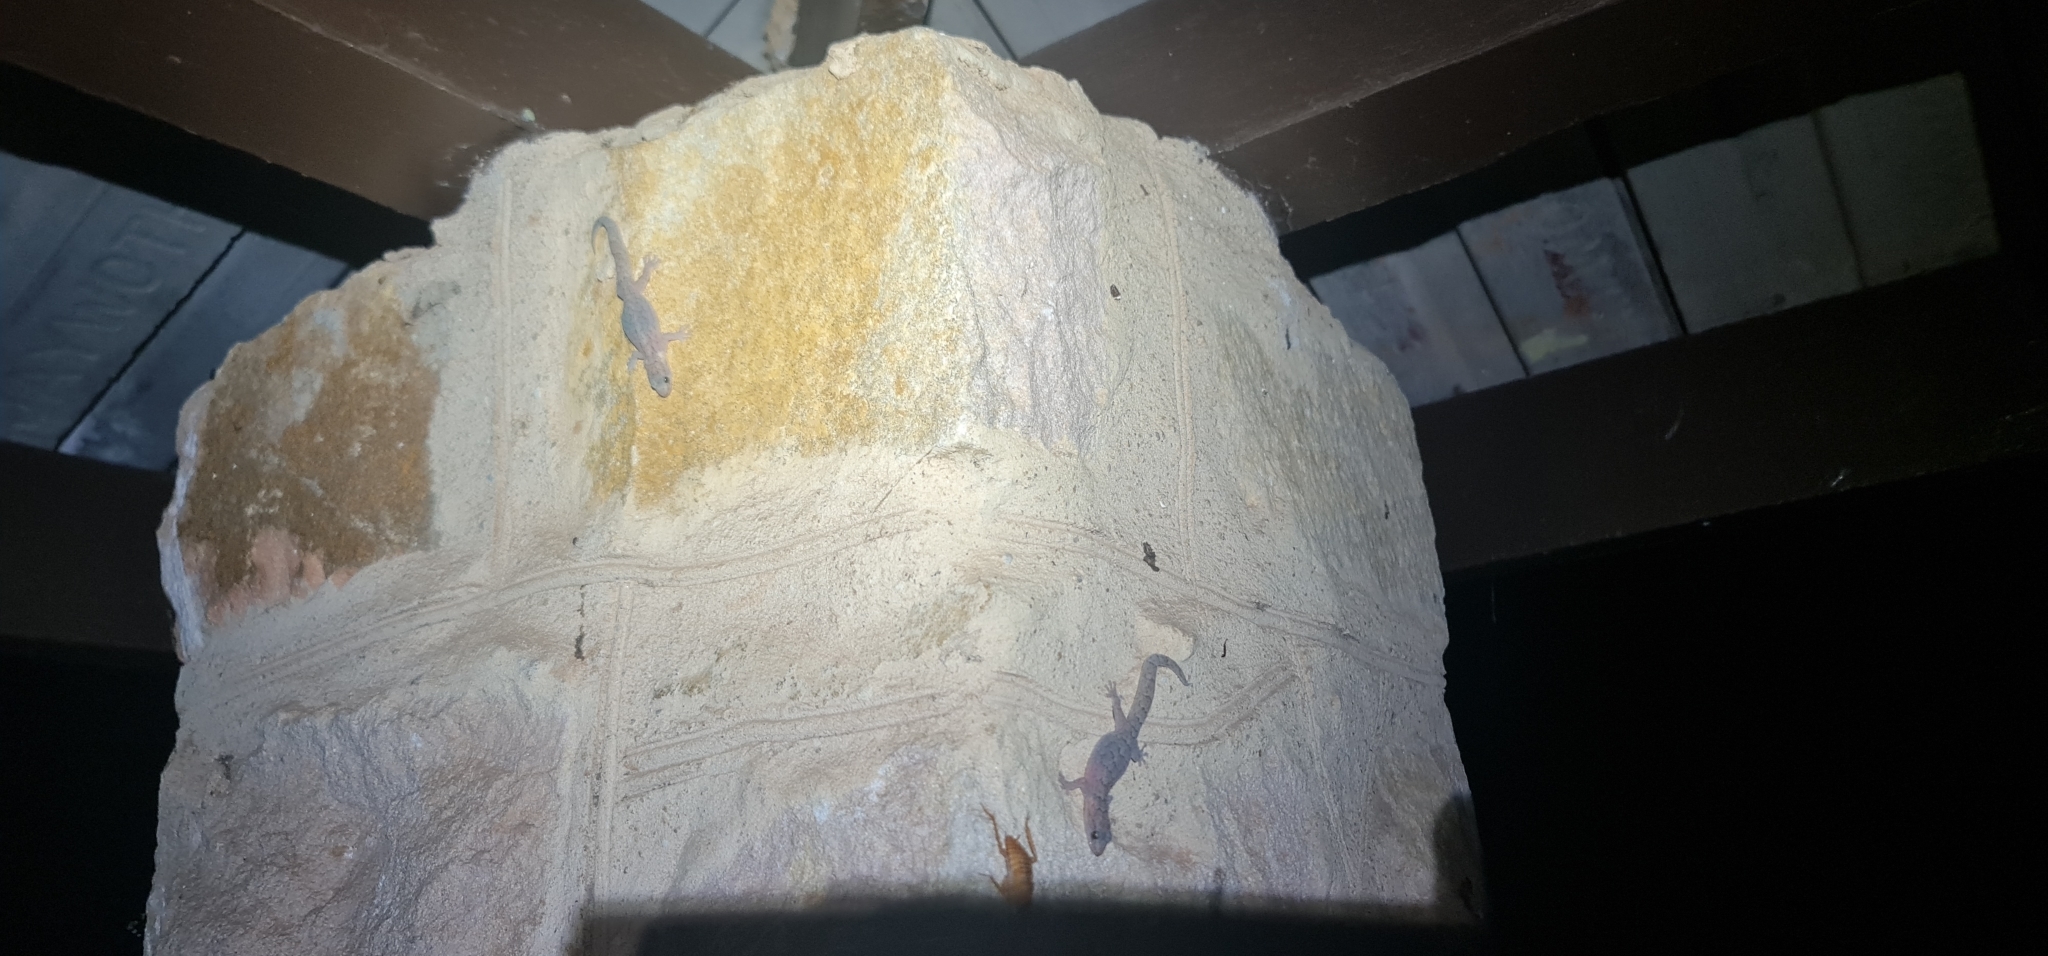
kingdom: Animalia
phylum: Chordata
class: Squamata
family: Gekkonidae
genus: Christinus
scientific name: Christinus marmoratus
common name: Marbled gecko
